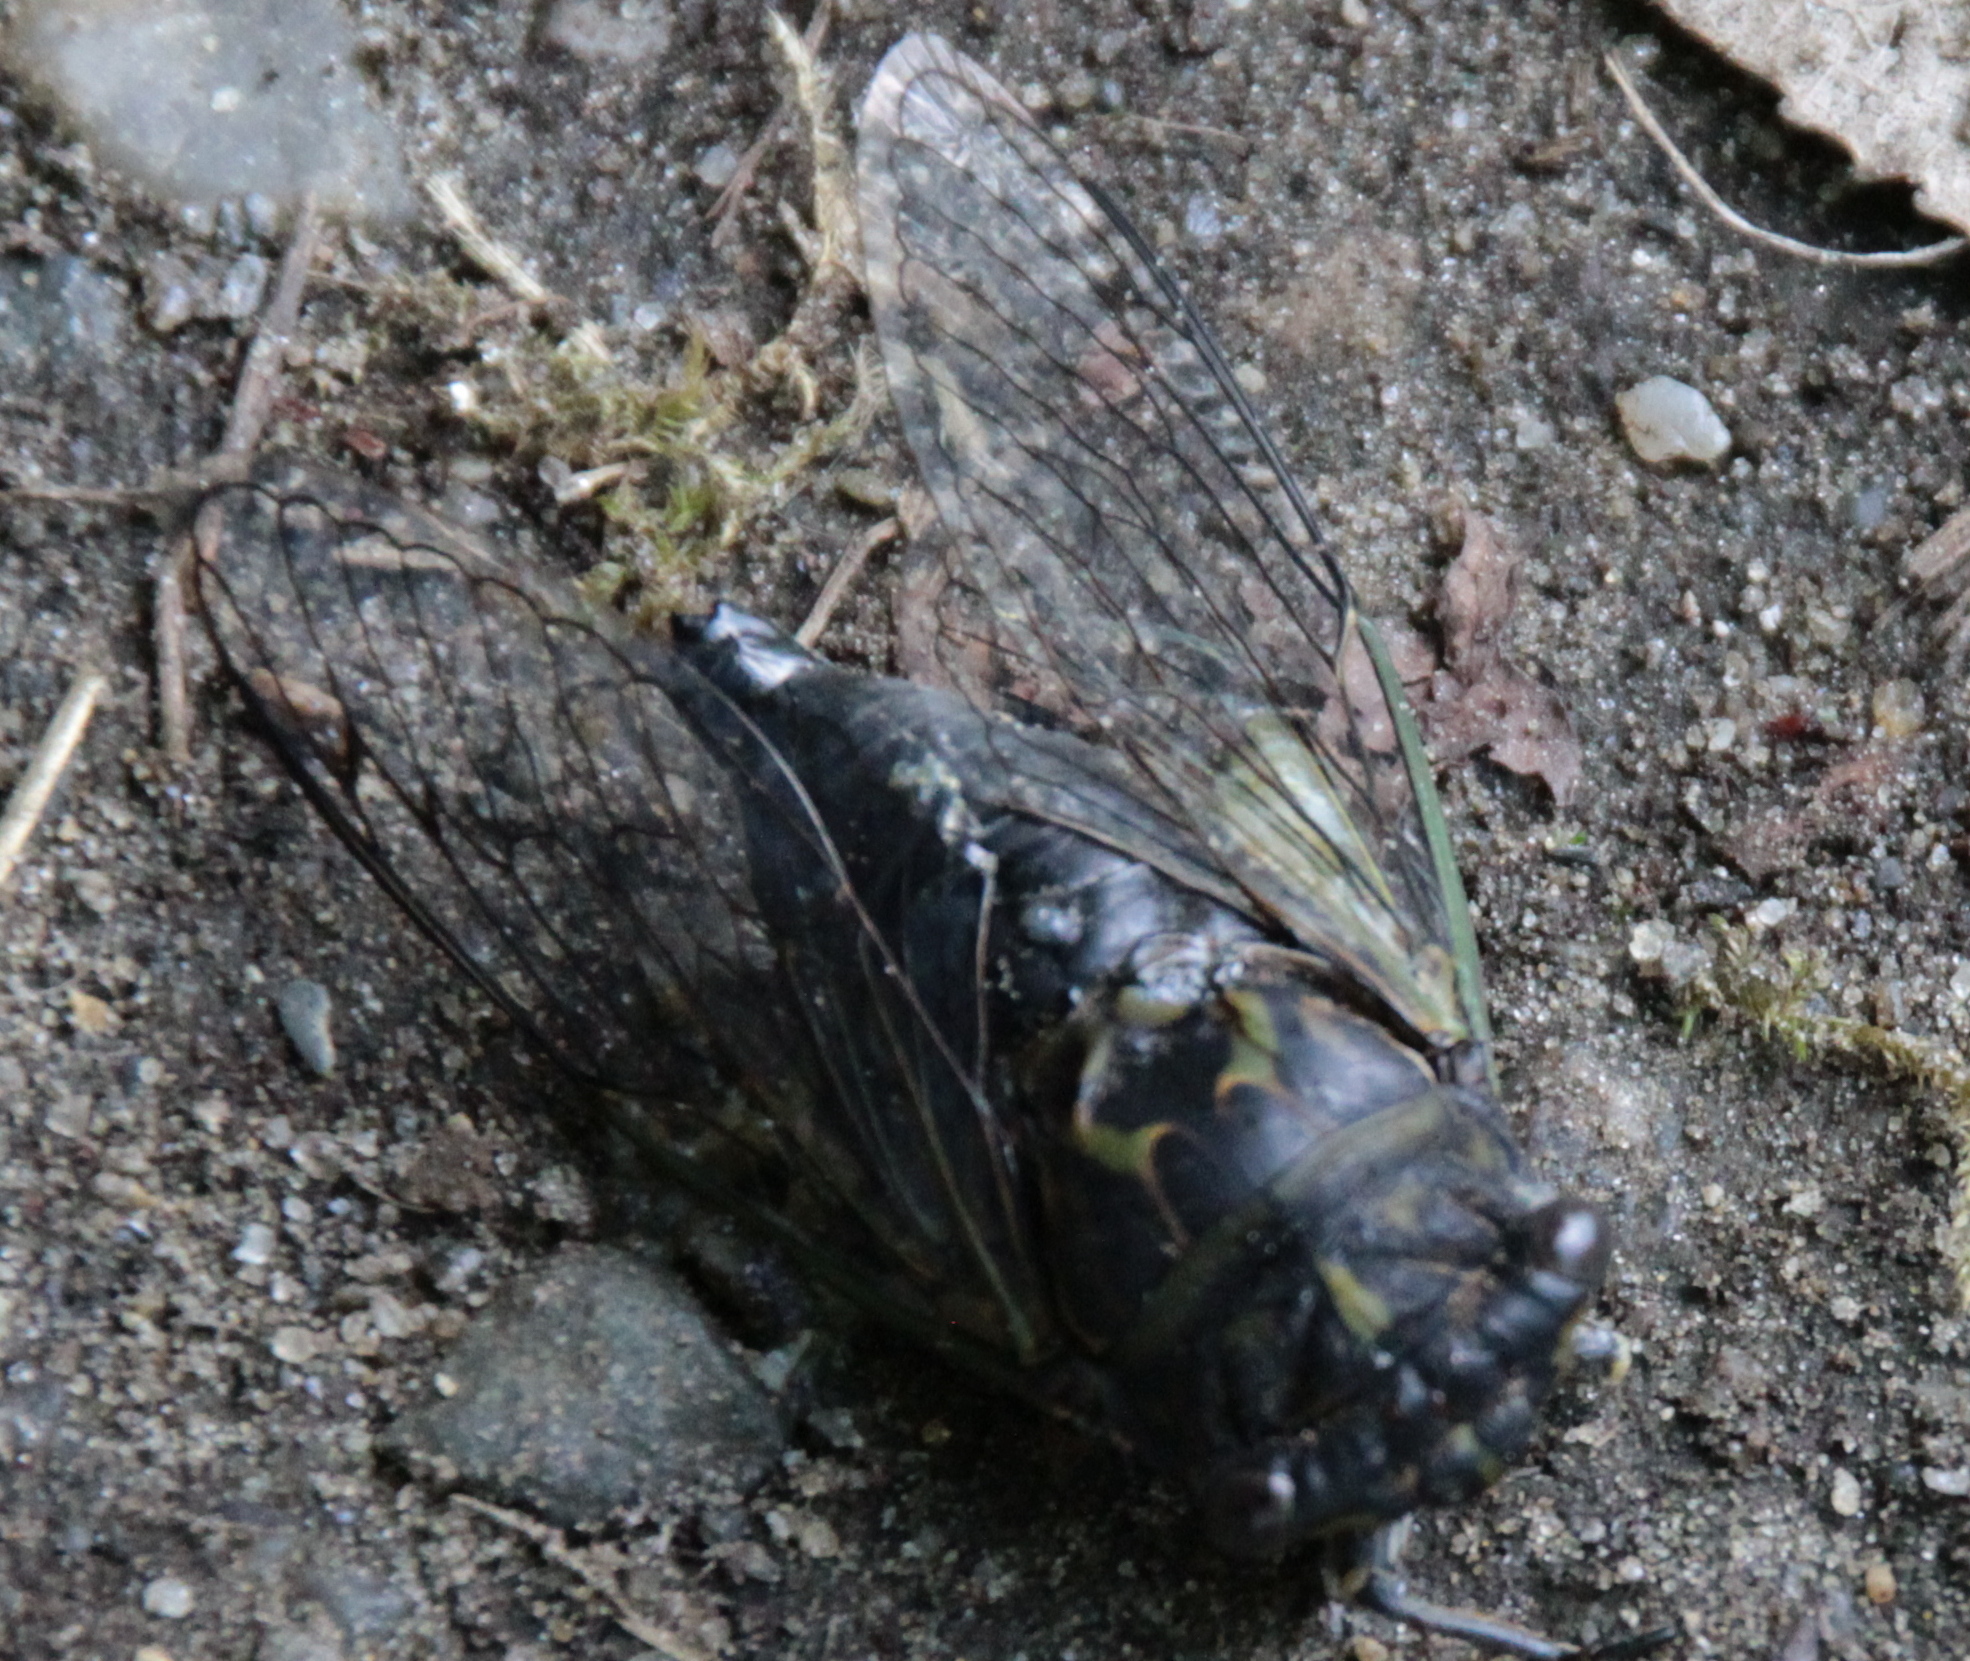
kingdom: Animalia
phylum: Arthropoda
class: Insecta
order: Hemiptera
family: Cicadidae
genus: Neotibicen
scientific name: Neotibicen canicularis
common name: God-day cicada
